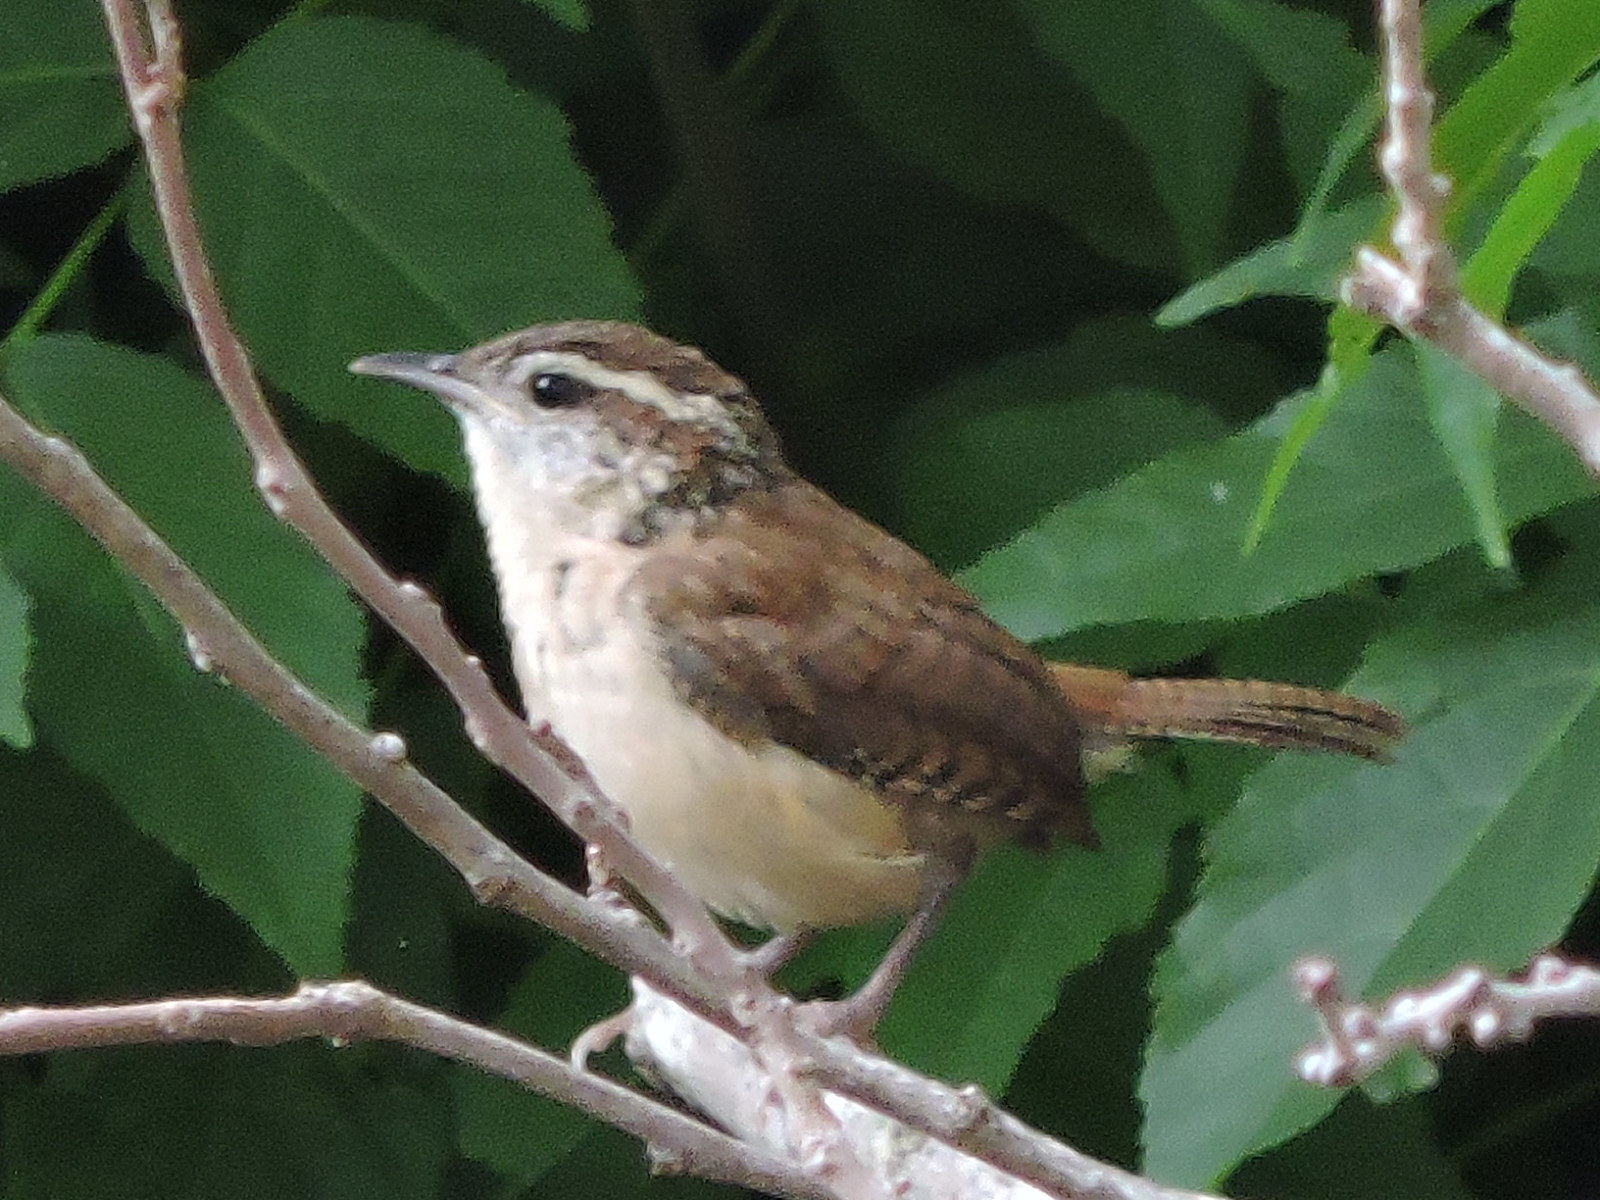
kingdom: Animalia
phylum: Chordata
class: Aves
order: Passeriformes
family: Troglodytidae
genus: Thryothorus
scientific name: Thryothorus ludovicianus
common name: Carolina wren
